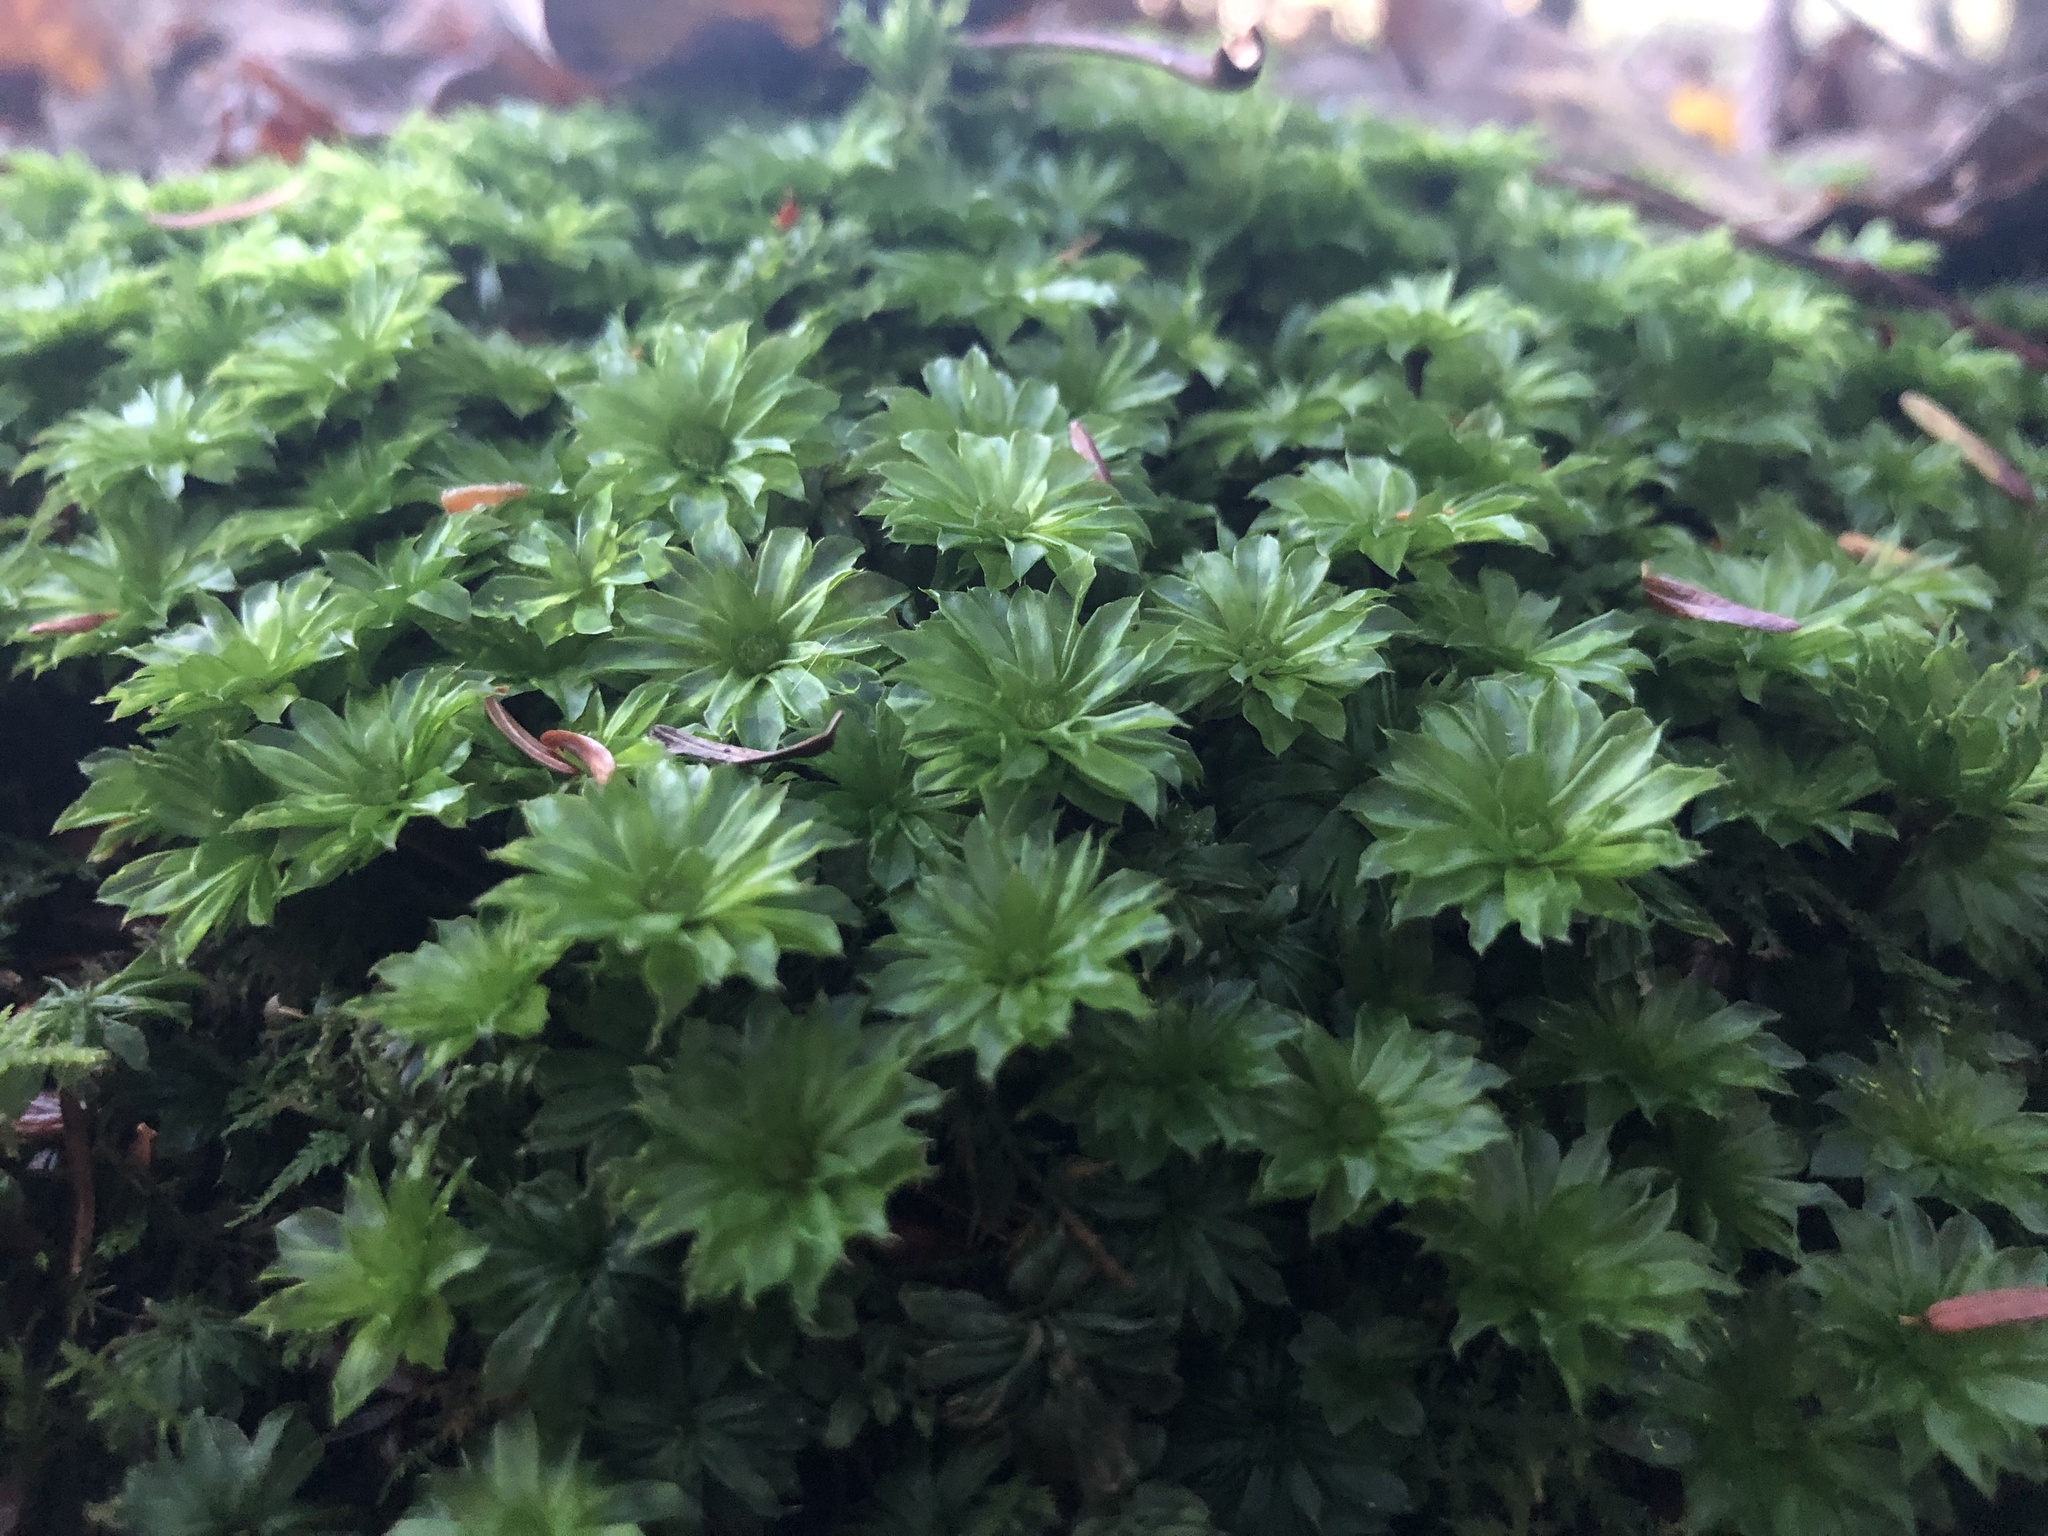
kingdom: Plantae
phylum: Bryophyta
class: Bryopsida
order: Bryales
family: Bryaceae
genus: Rhodobryum
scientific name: Rhodobryum ontariense
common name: Ontario rhodobryum moss
